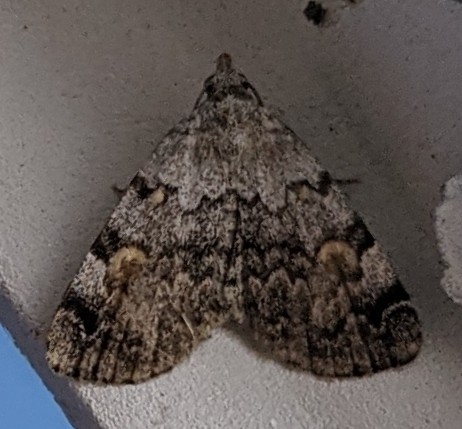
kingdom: Animalia
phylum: Arthropoda
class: Insecta
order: Lepidoptera
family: Erebidae
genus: Idia
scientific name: Idia americalis
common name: American idia moth
